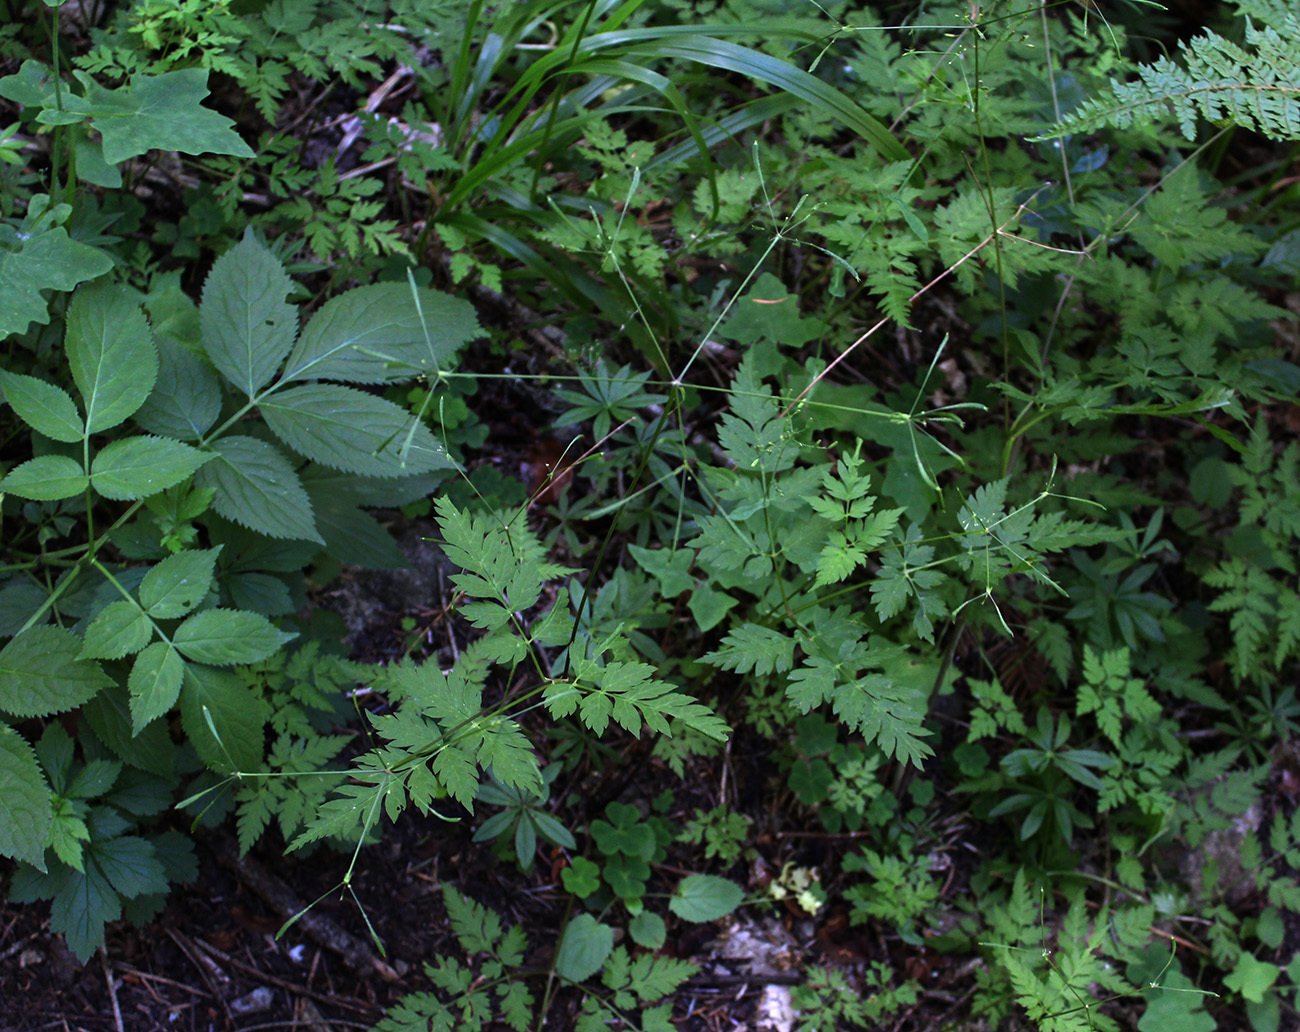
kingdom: Plantae
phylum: Tracheophyta
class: Magnoliopsida
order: Apiales
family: Apiaceae
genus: Osmorhiza
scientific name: Osmorhiza aristata
